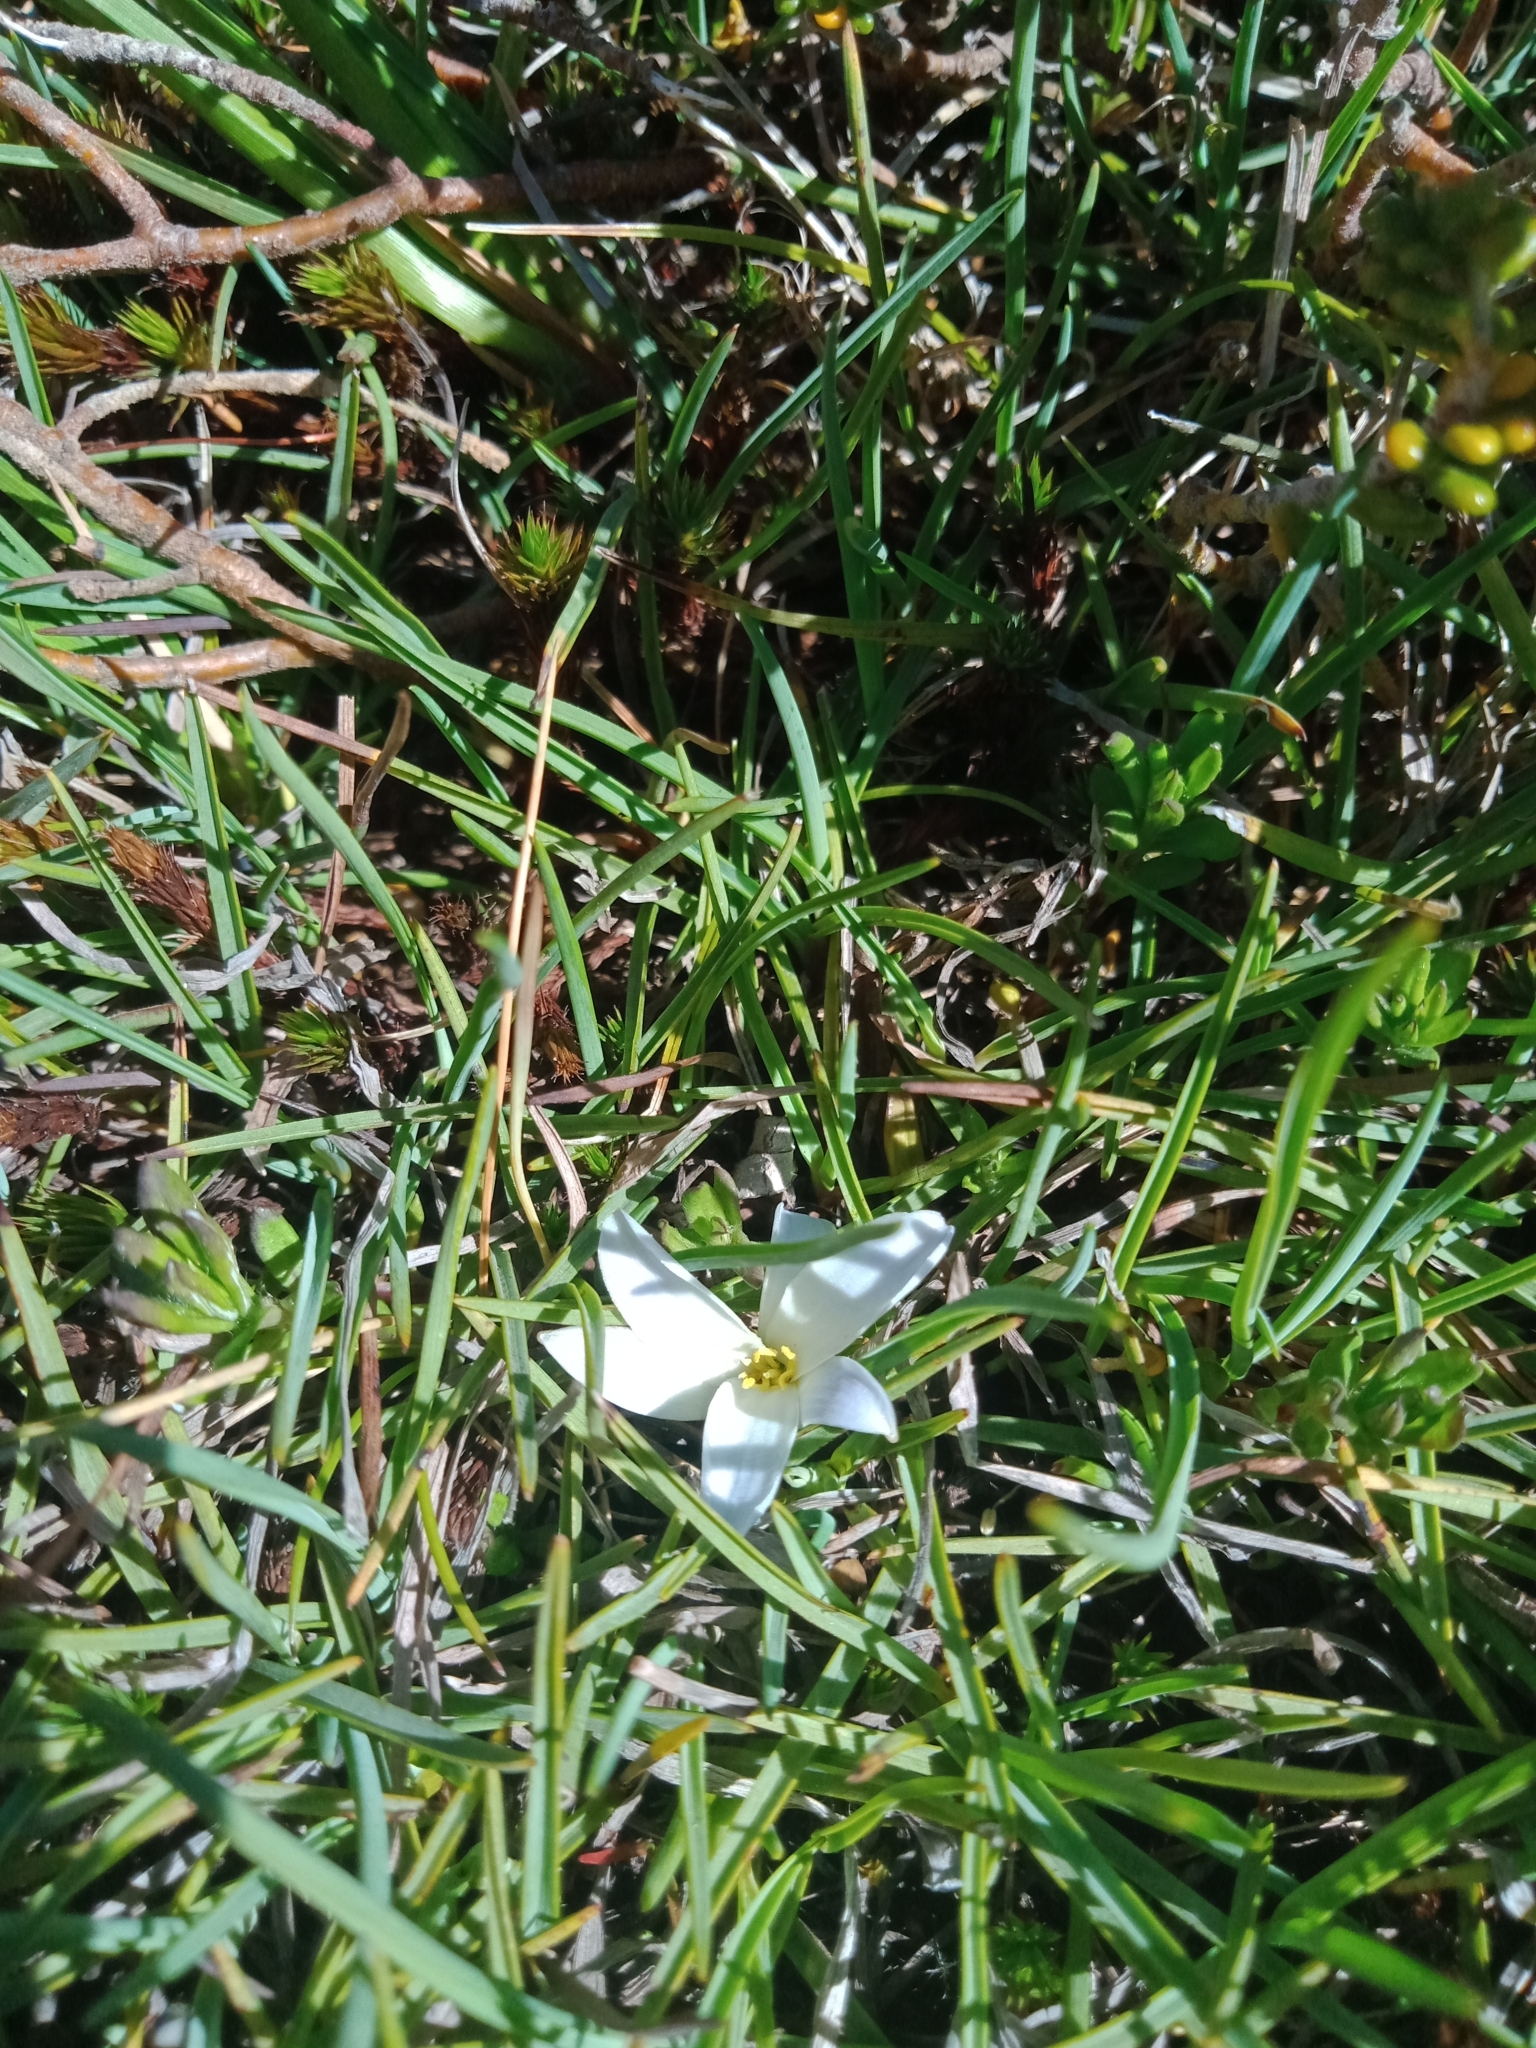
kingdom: Plantae
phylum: Tracheophyta
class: Liliopsida
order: Asparagales
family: Asphodelaceae
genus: Herpolirion
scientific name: Herpolirion novae-zelandiae
